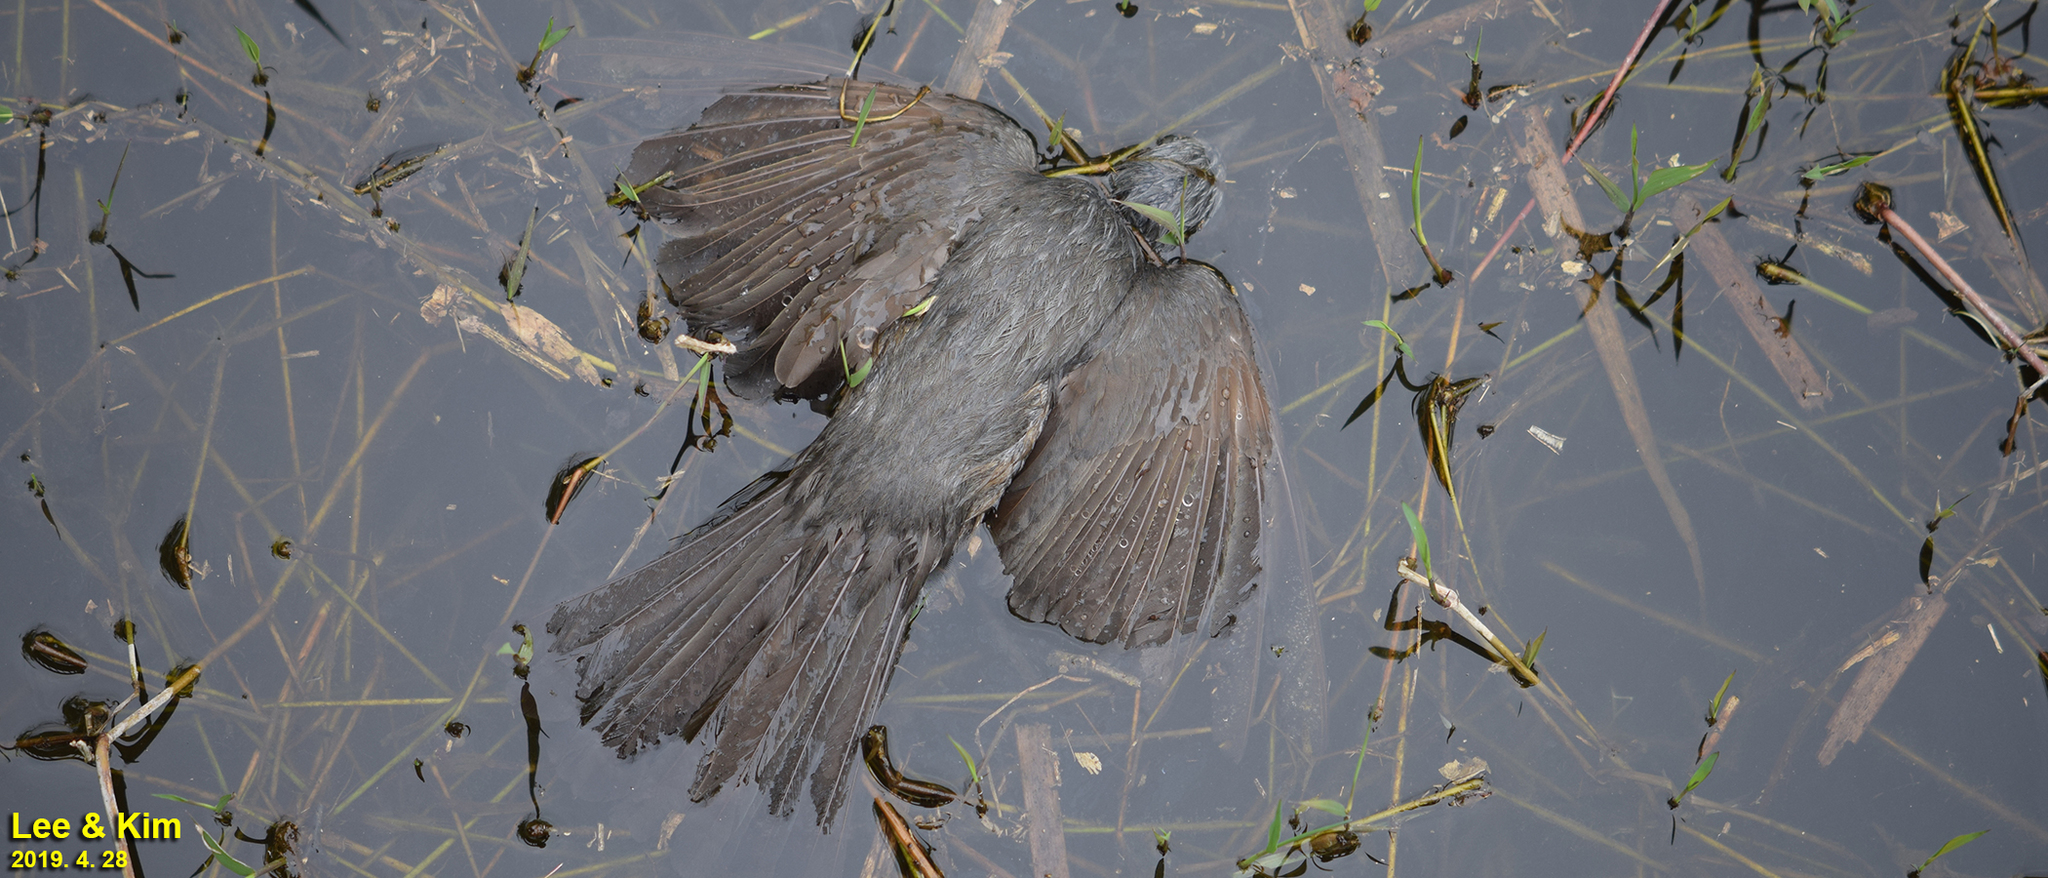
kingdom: Animalia
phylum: Chordata
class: Aves
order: Passeriformes
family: Pycnonotidae
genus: Hypsipetes
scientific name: Hypsipetes amaurotis
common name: Brown-eared bulbul
